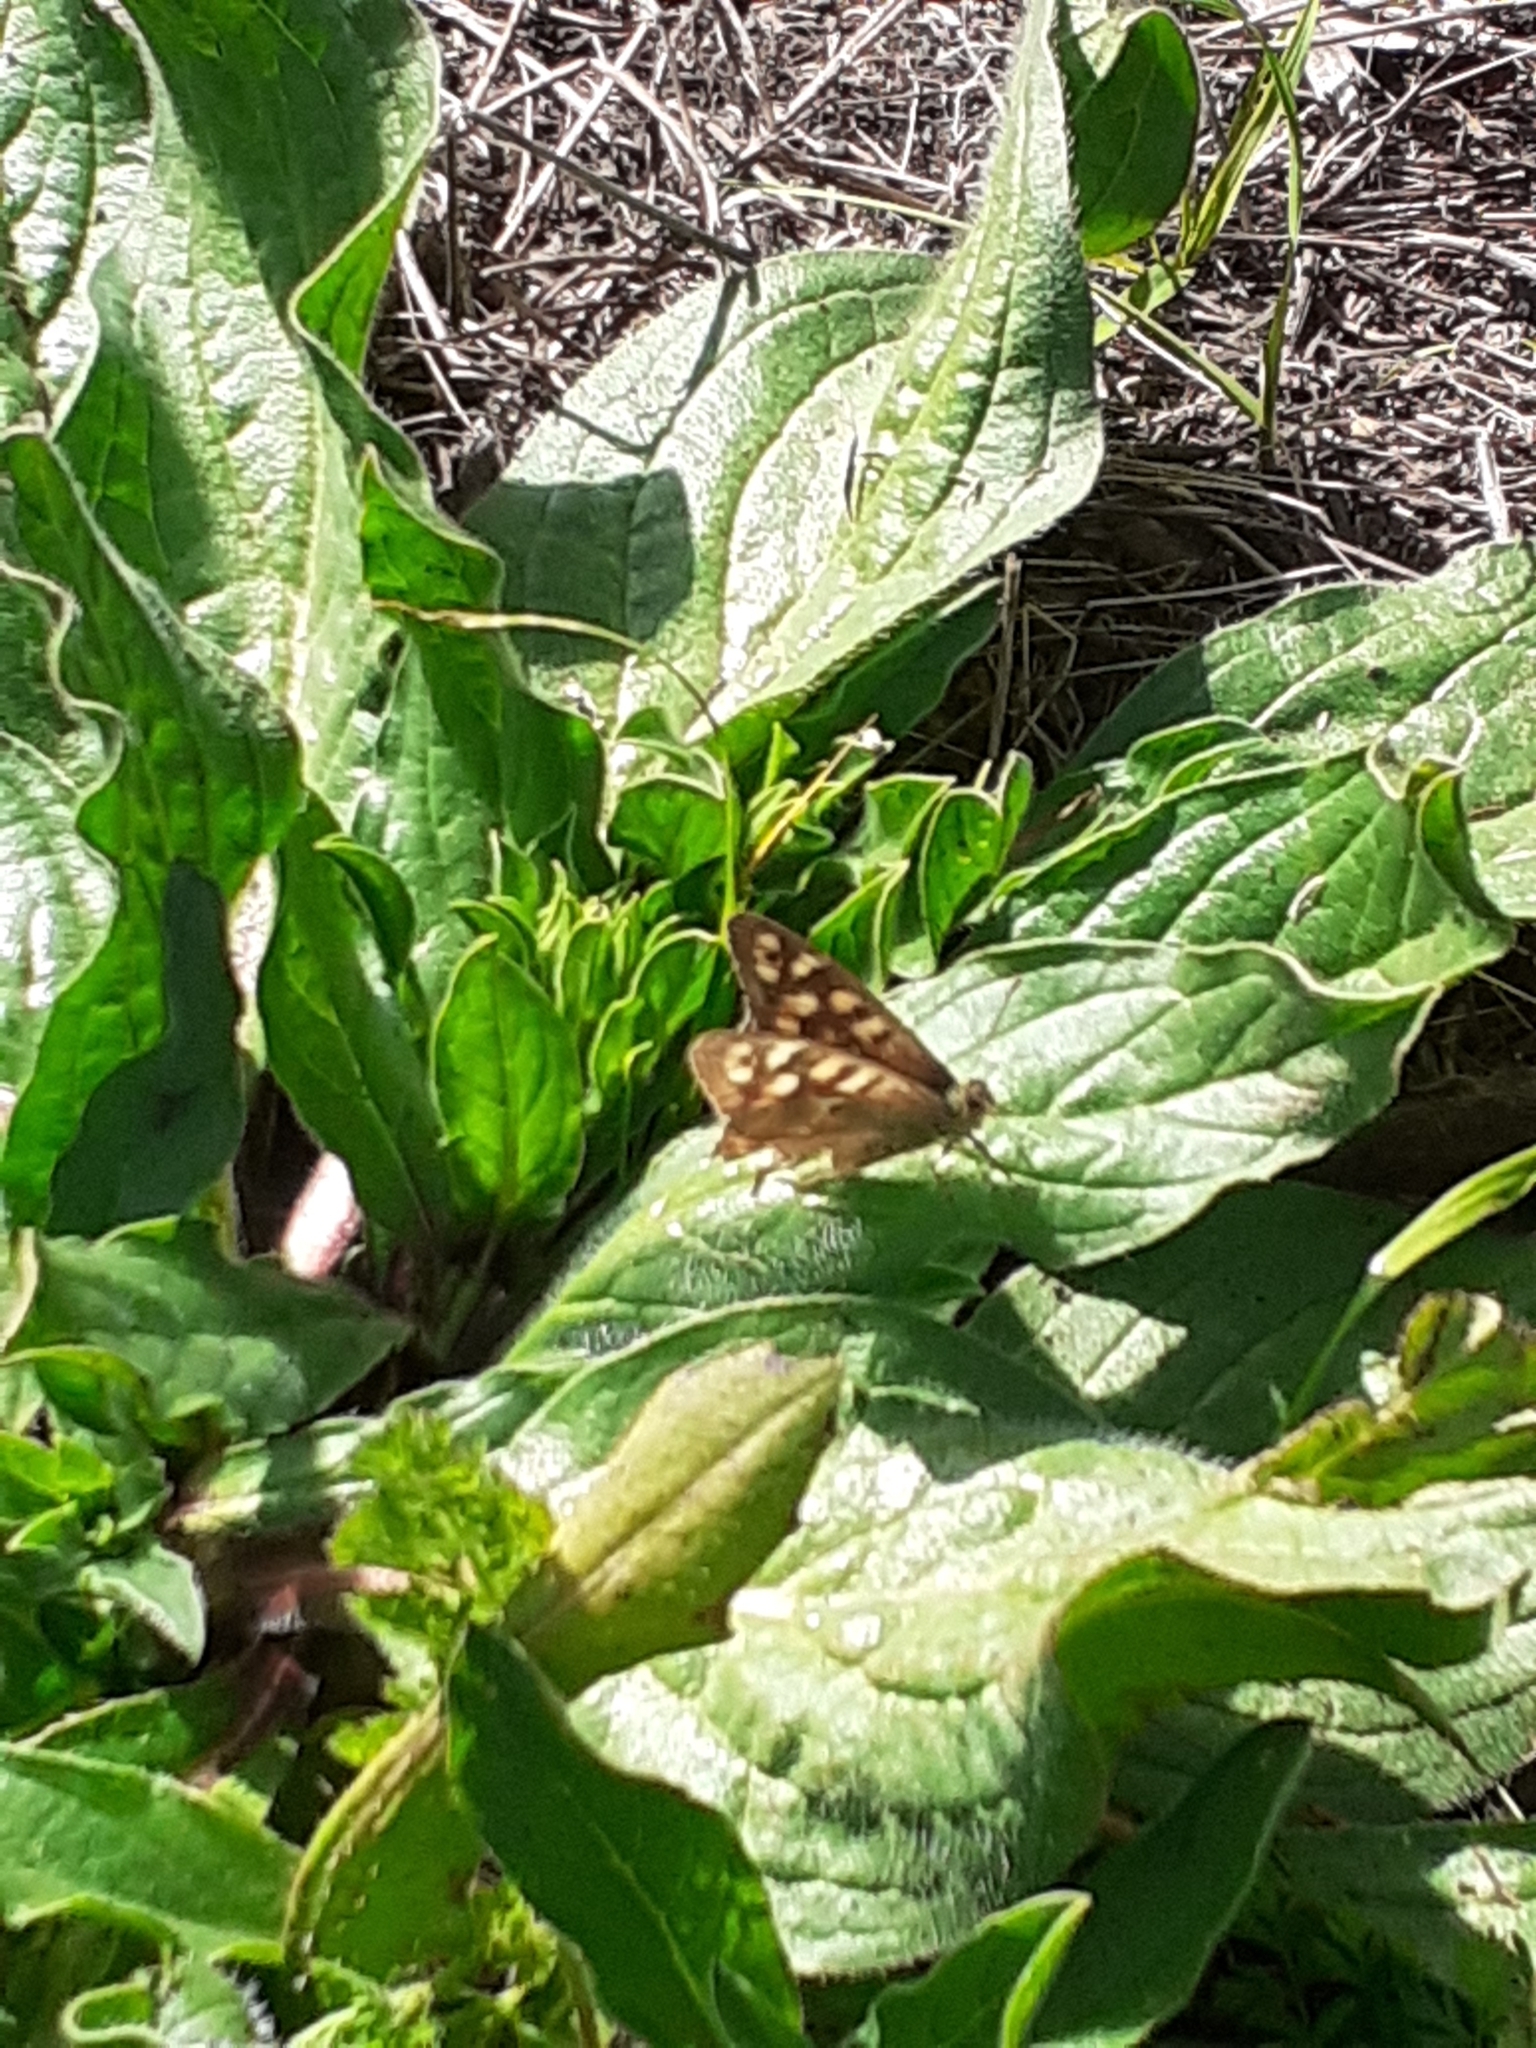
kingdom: Animalia
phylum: Arthropoda
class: Insecta
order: Lepidoptera
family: Nymphalidae
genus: Pararge
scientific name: Pararge aegeria
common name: Speckled wood
